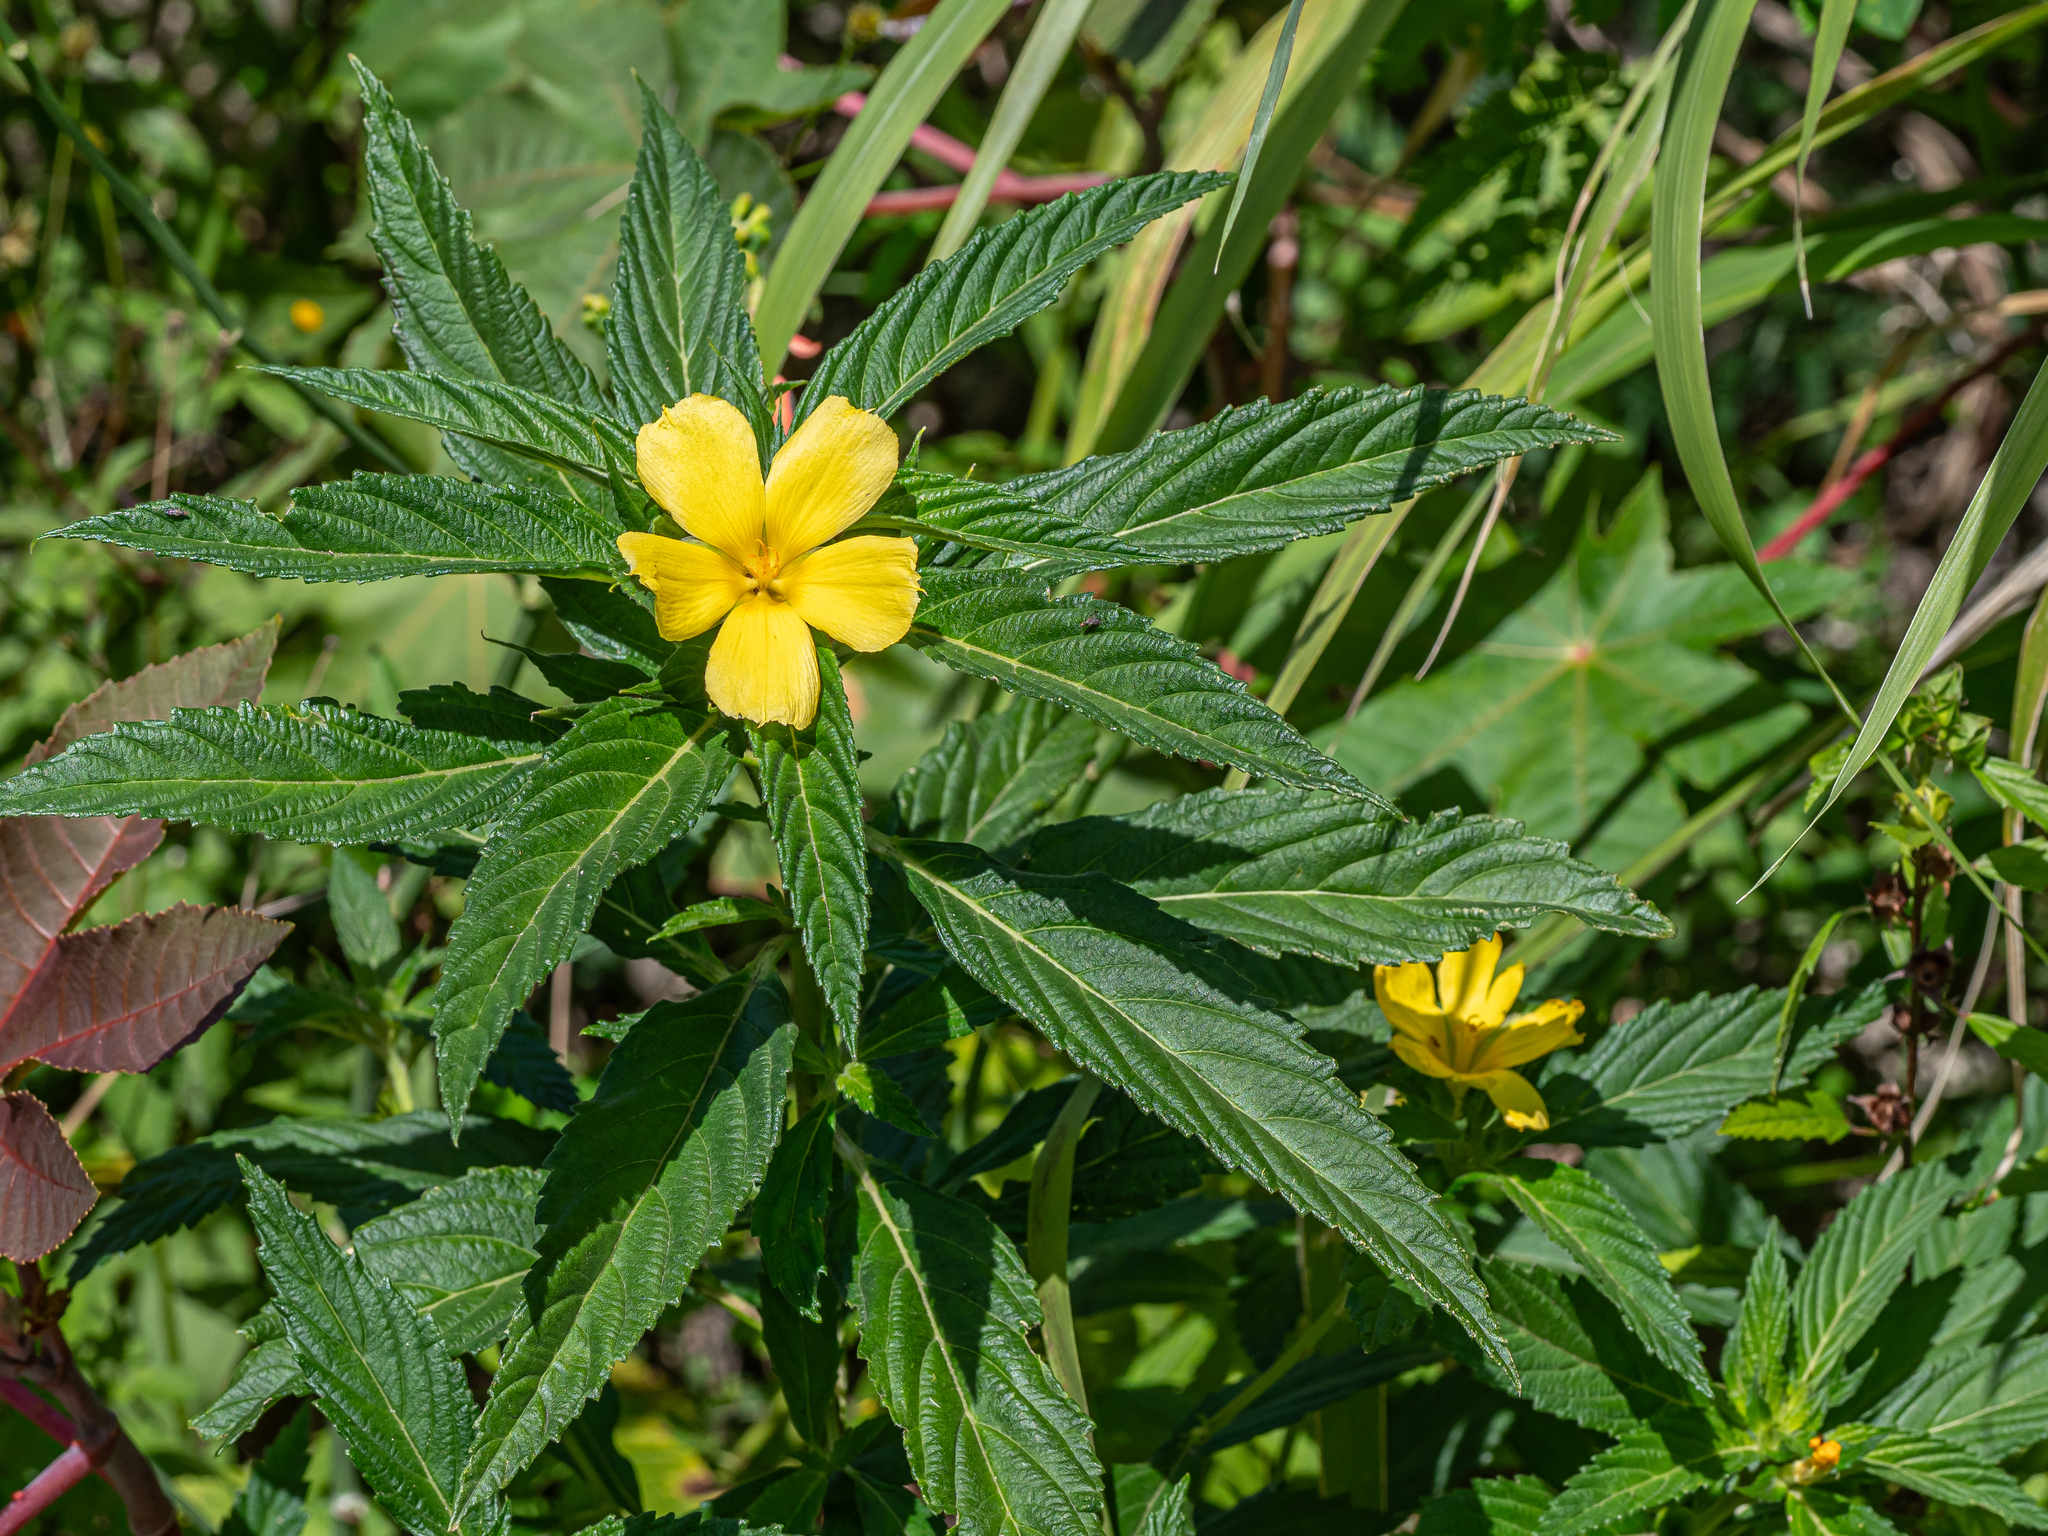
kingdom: Plantae
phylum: Tracheophyta
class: Magnoliopsida
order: Malpighiales
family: Turneraceae
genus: Turnera
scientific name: Turnera ulmifolia
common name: Ramgoat dashalong
